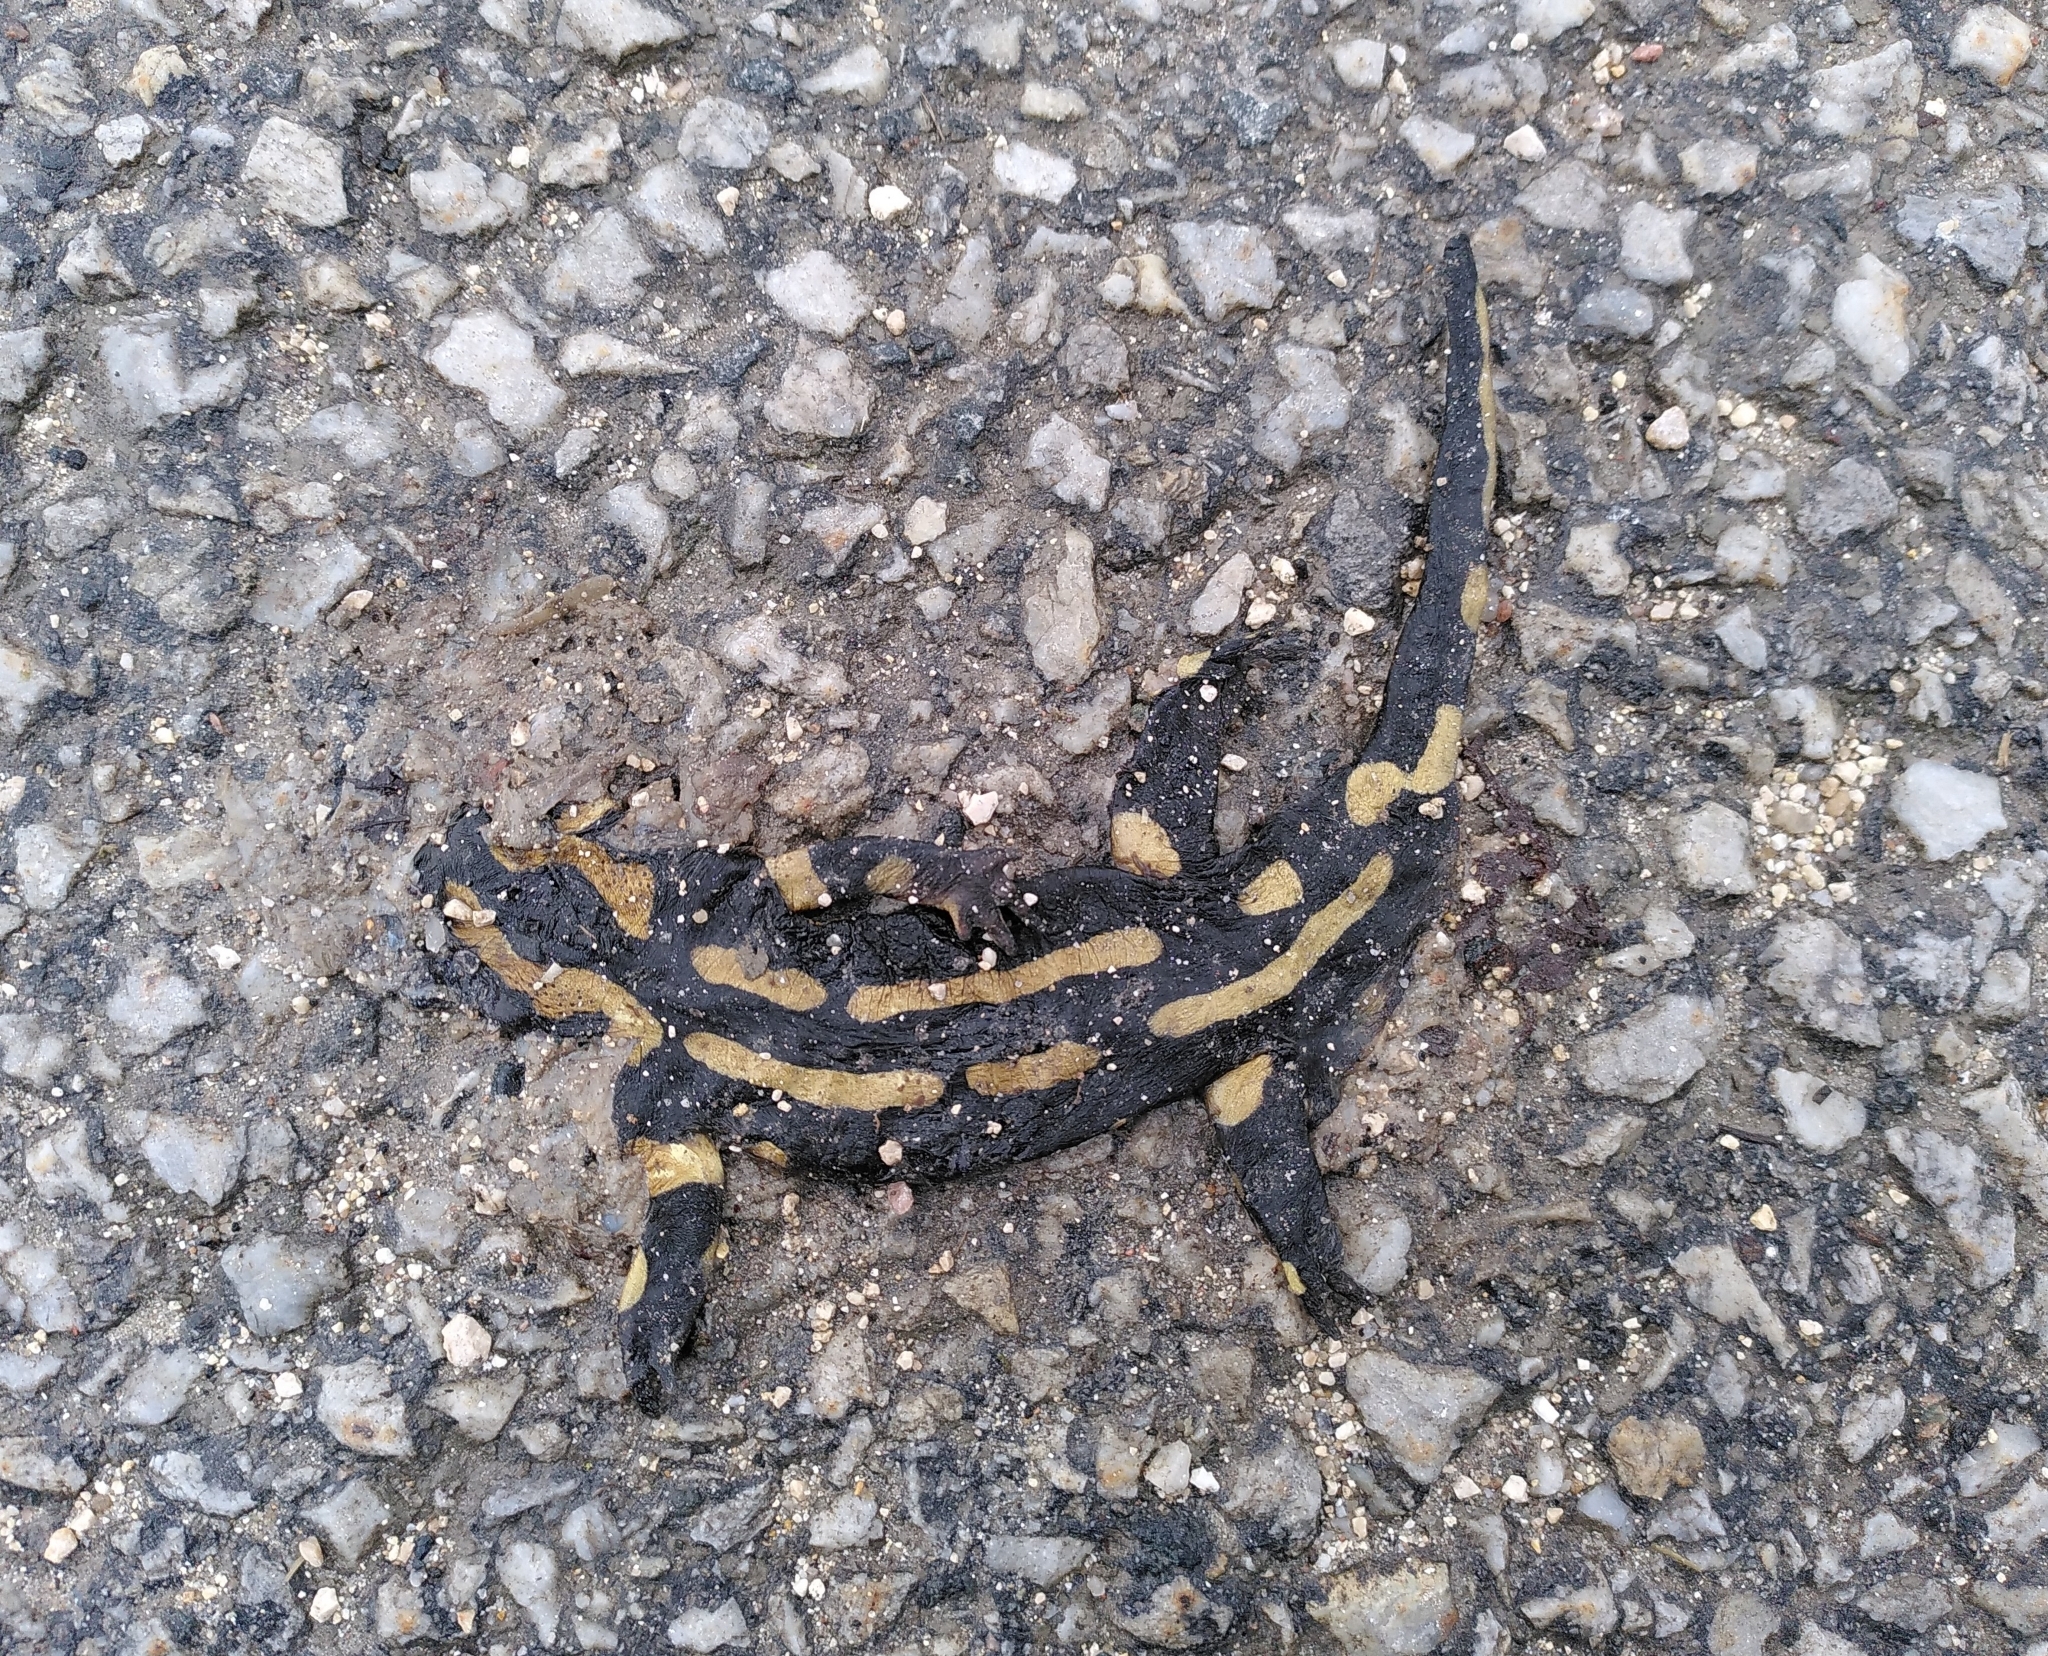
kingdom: Animalia
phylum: Chordata
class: Amphibia
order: Caudata
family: Salamandridae
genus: Salamandra
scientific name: Salamandra salamandra
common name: Fire salamander
